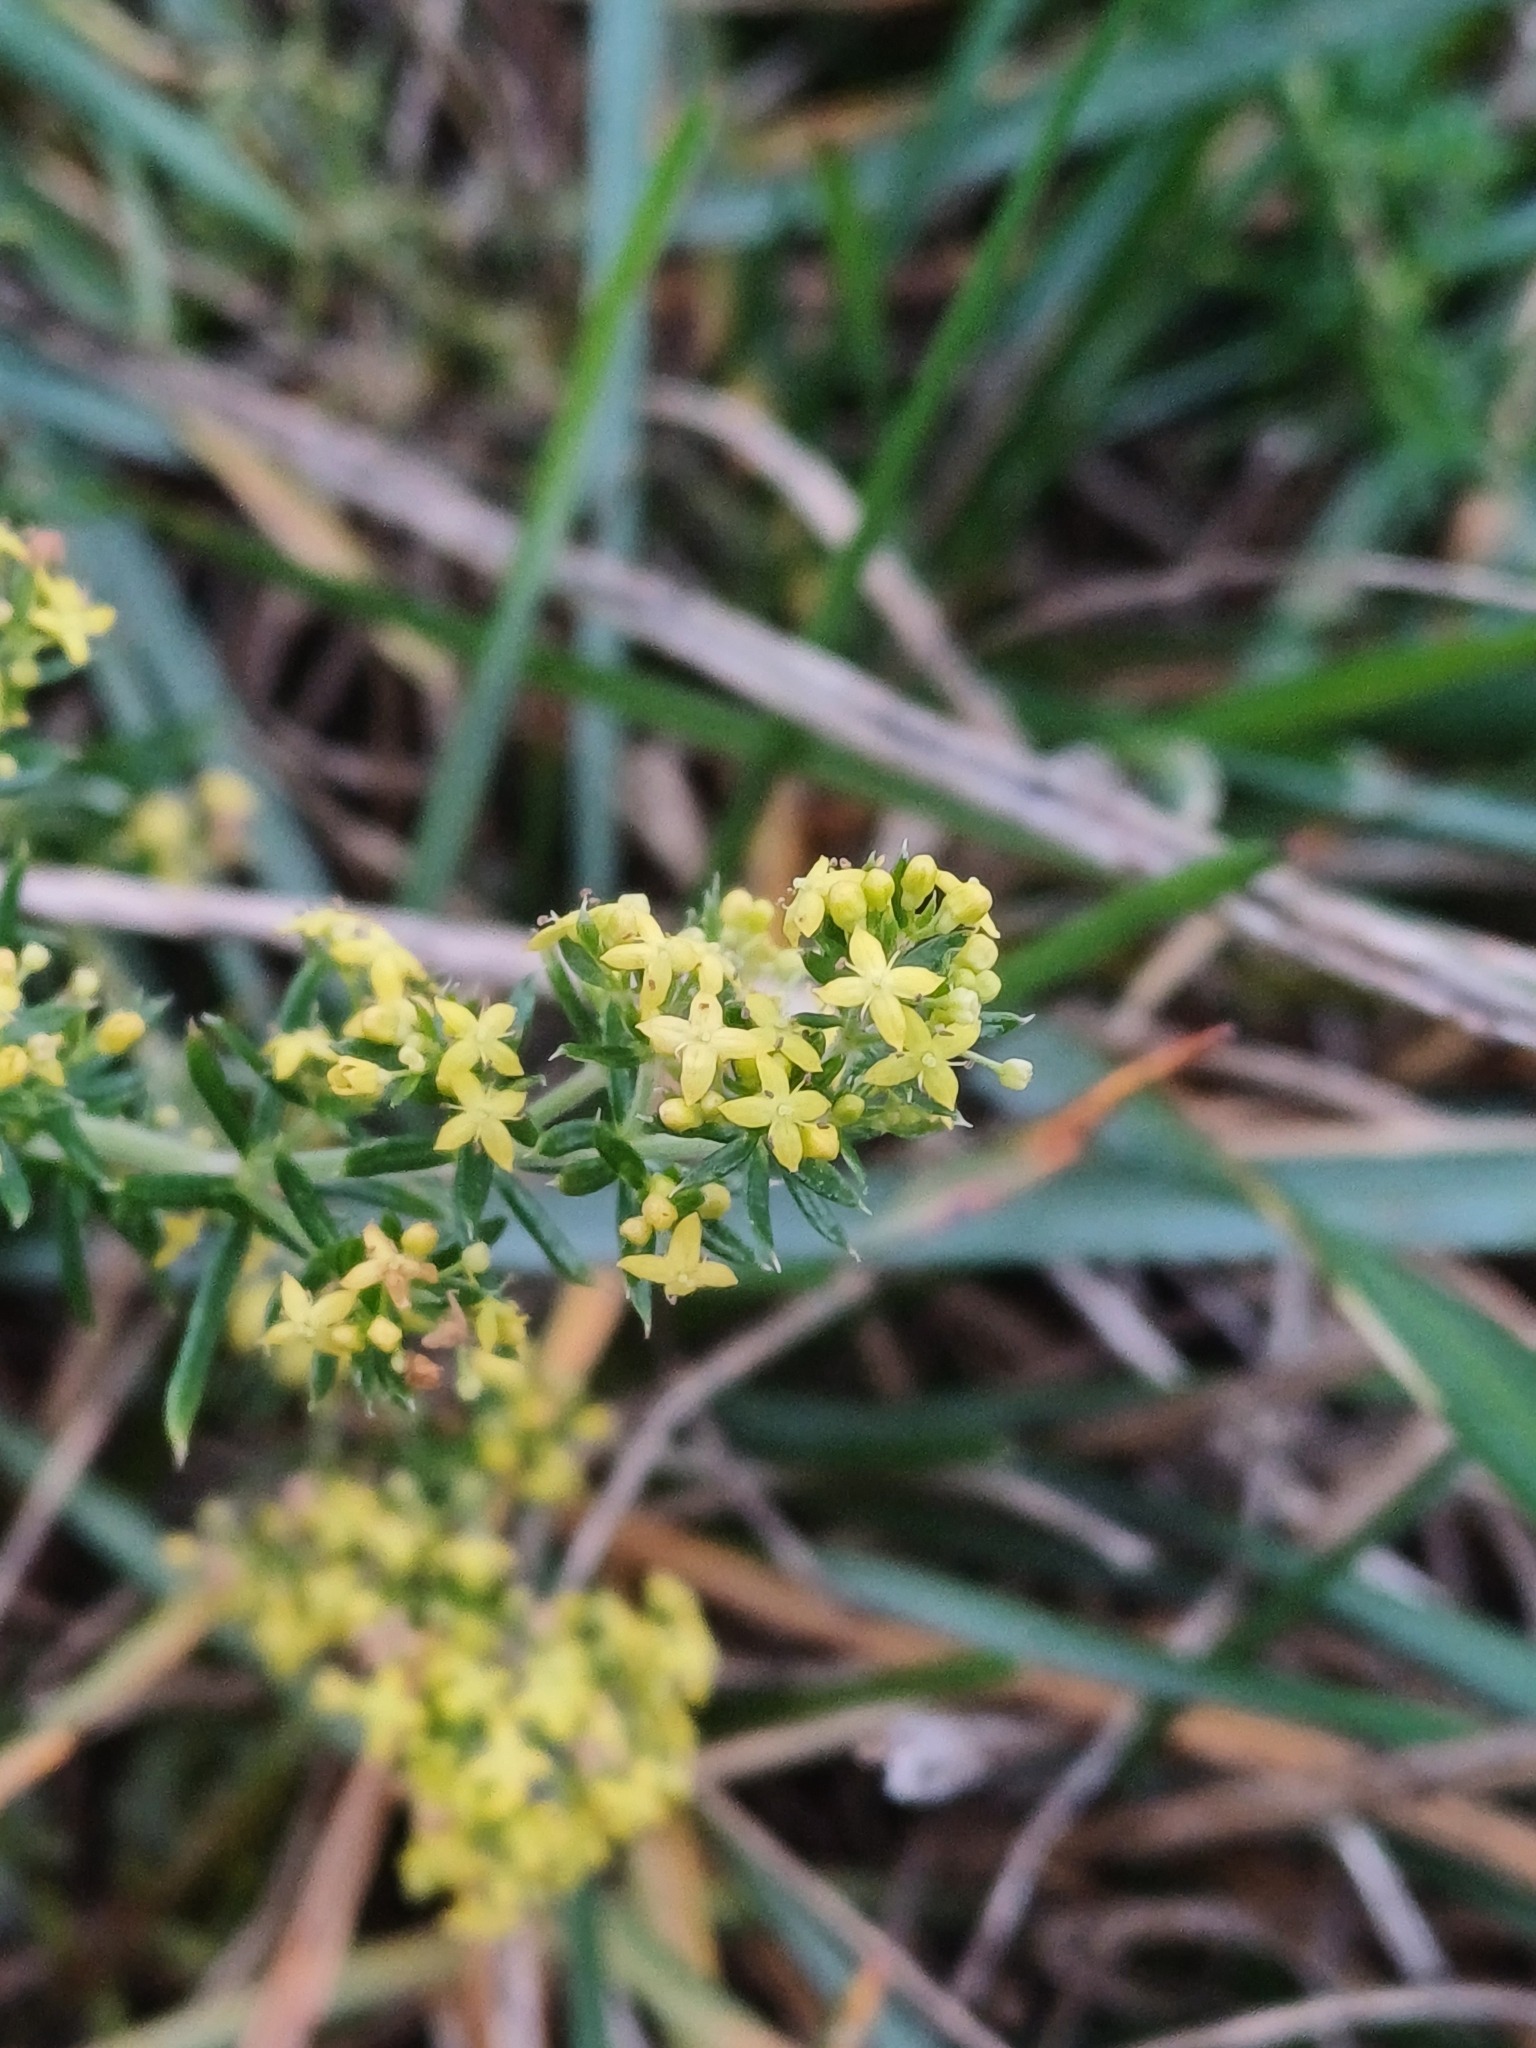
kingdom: Plantae
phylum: Tracheophyta
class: Magnoliopsida
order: Gentianales
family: Rubiaceae
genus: Galium
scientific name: Galium verum
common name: Lady's bedstraw
